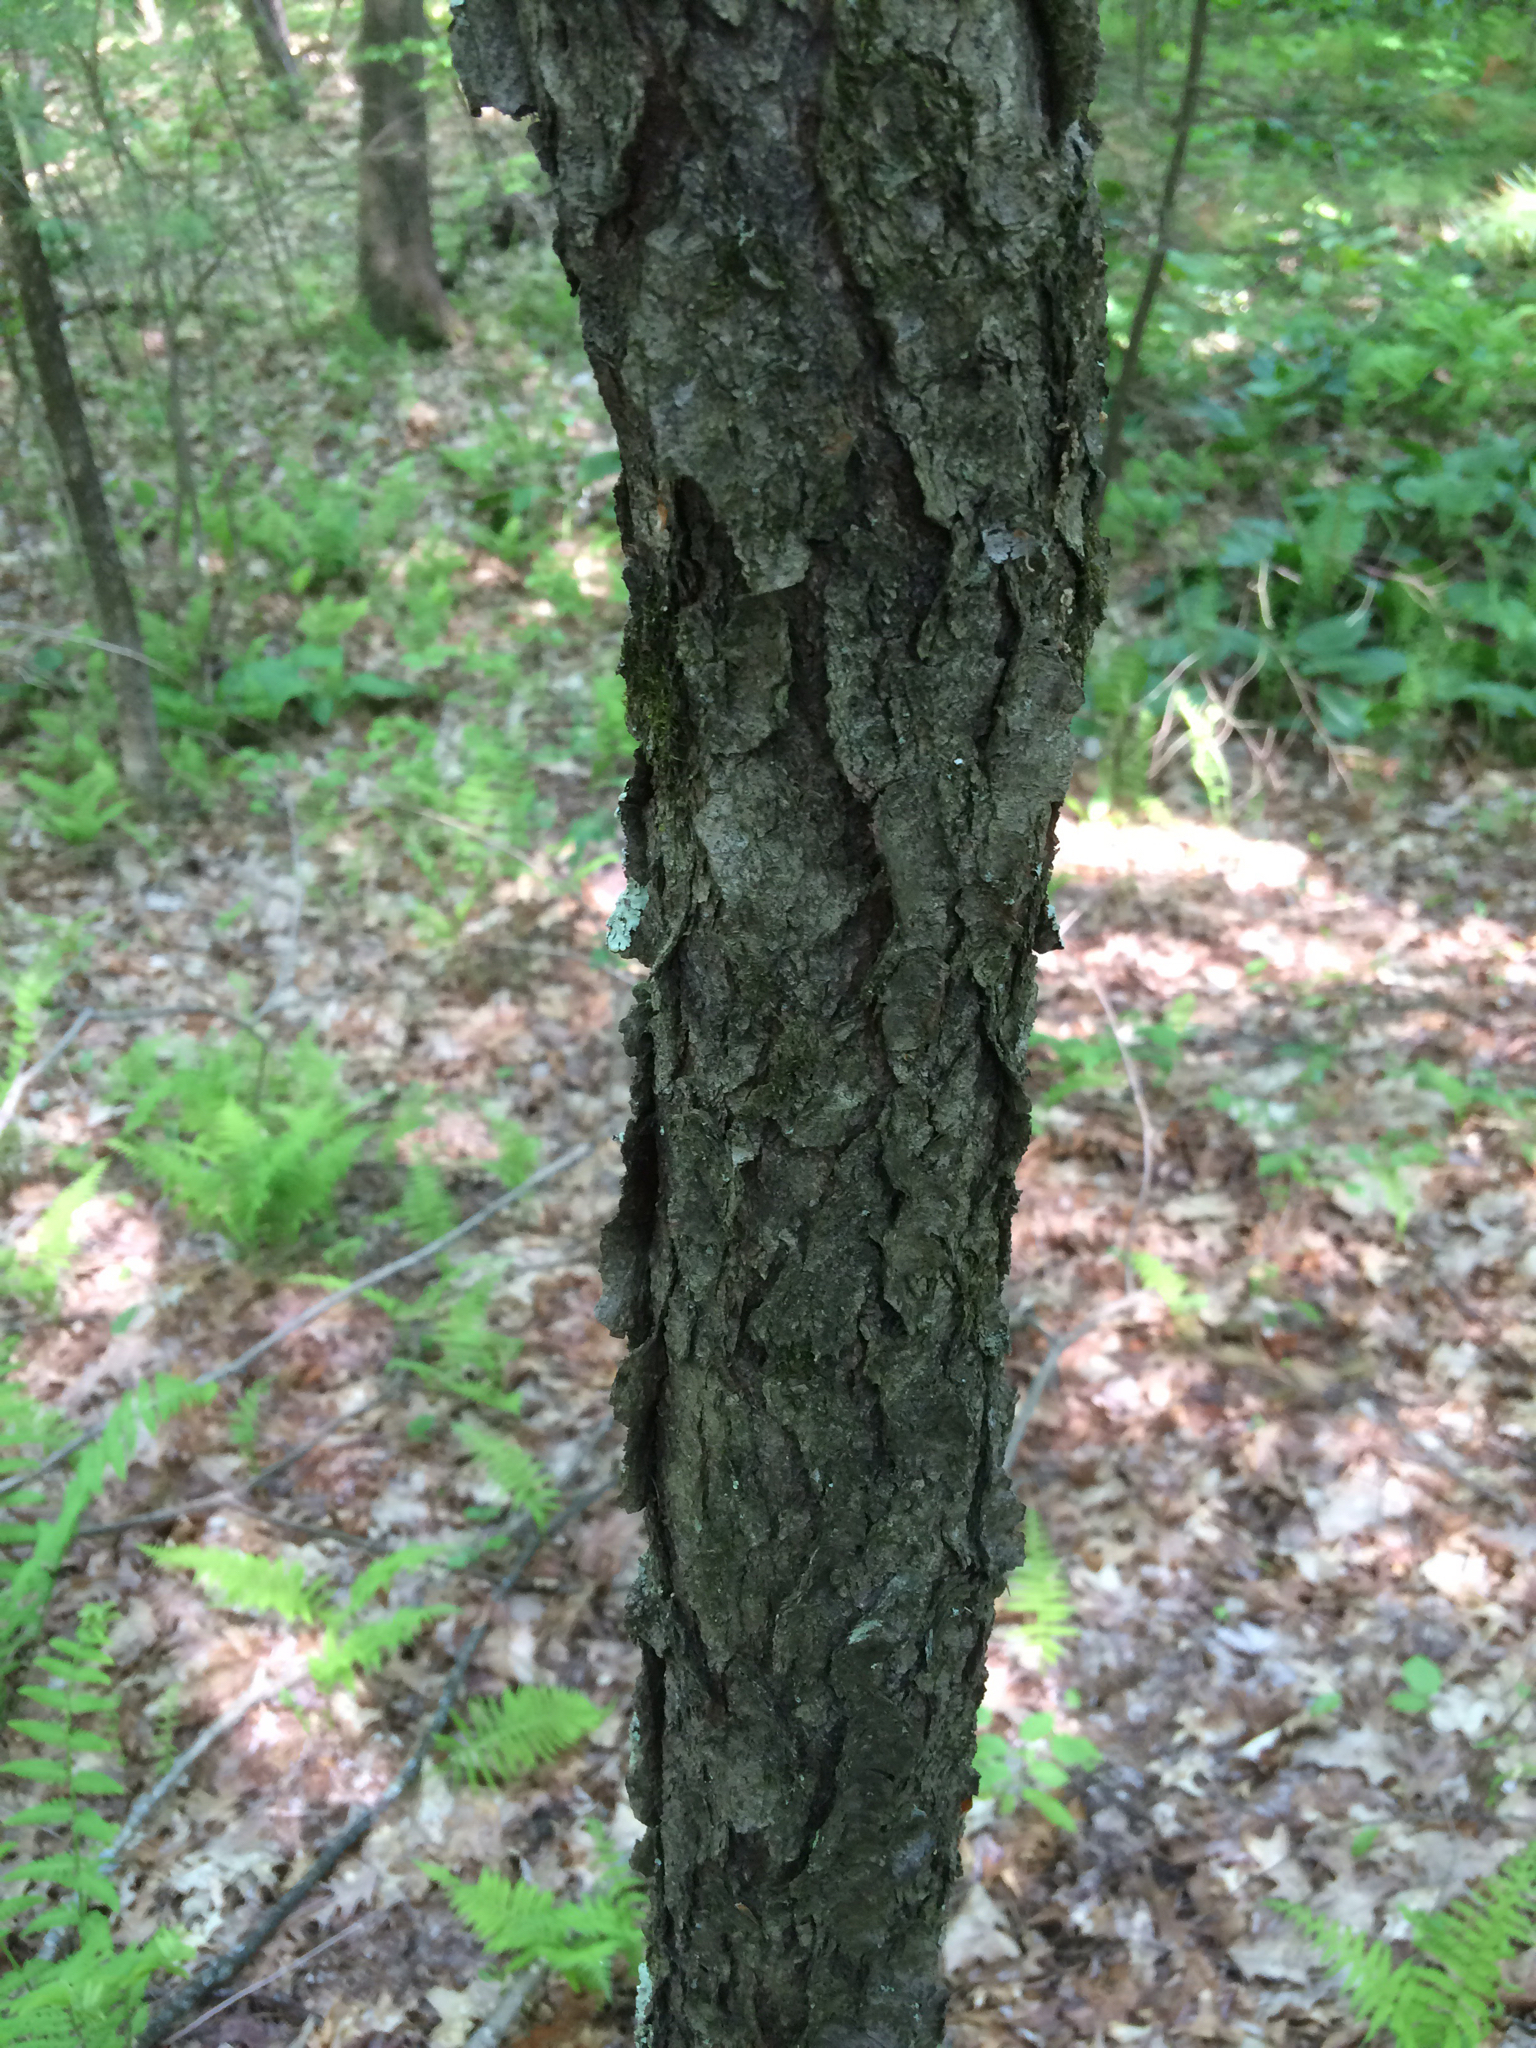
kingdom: Plantae
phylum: Tracheophyta
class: Magnoliopsida
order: Rosales
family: Rosaceae
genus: Prunus
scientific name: Prunus serotina
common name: Black cherry
